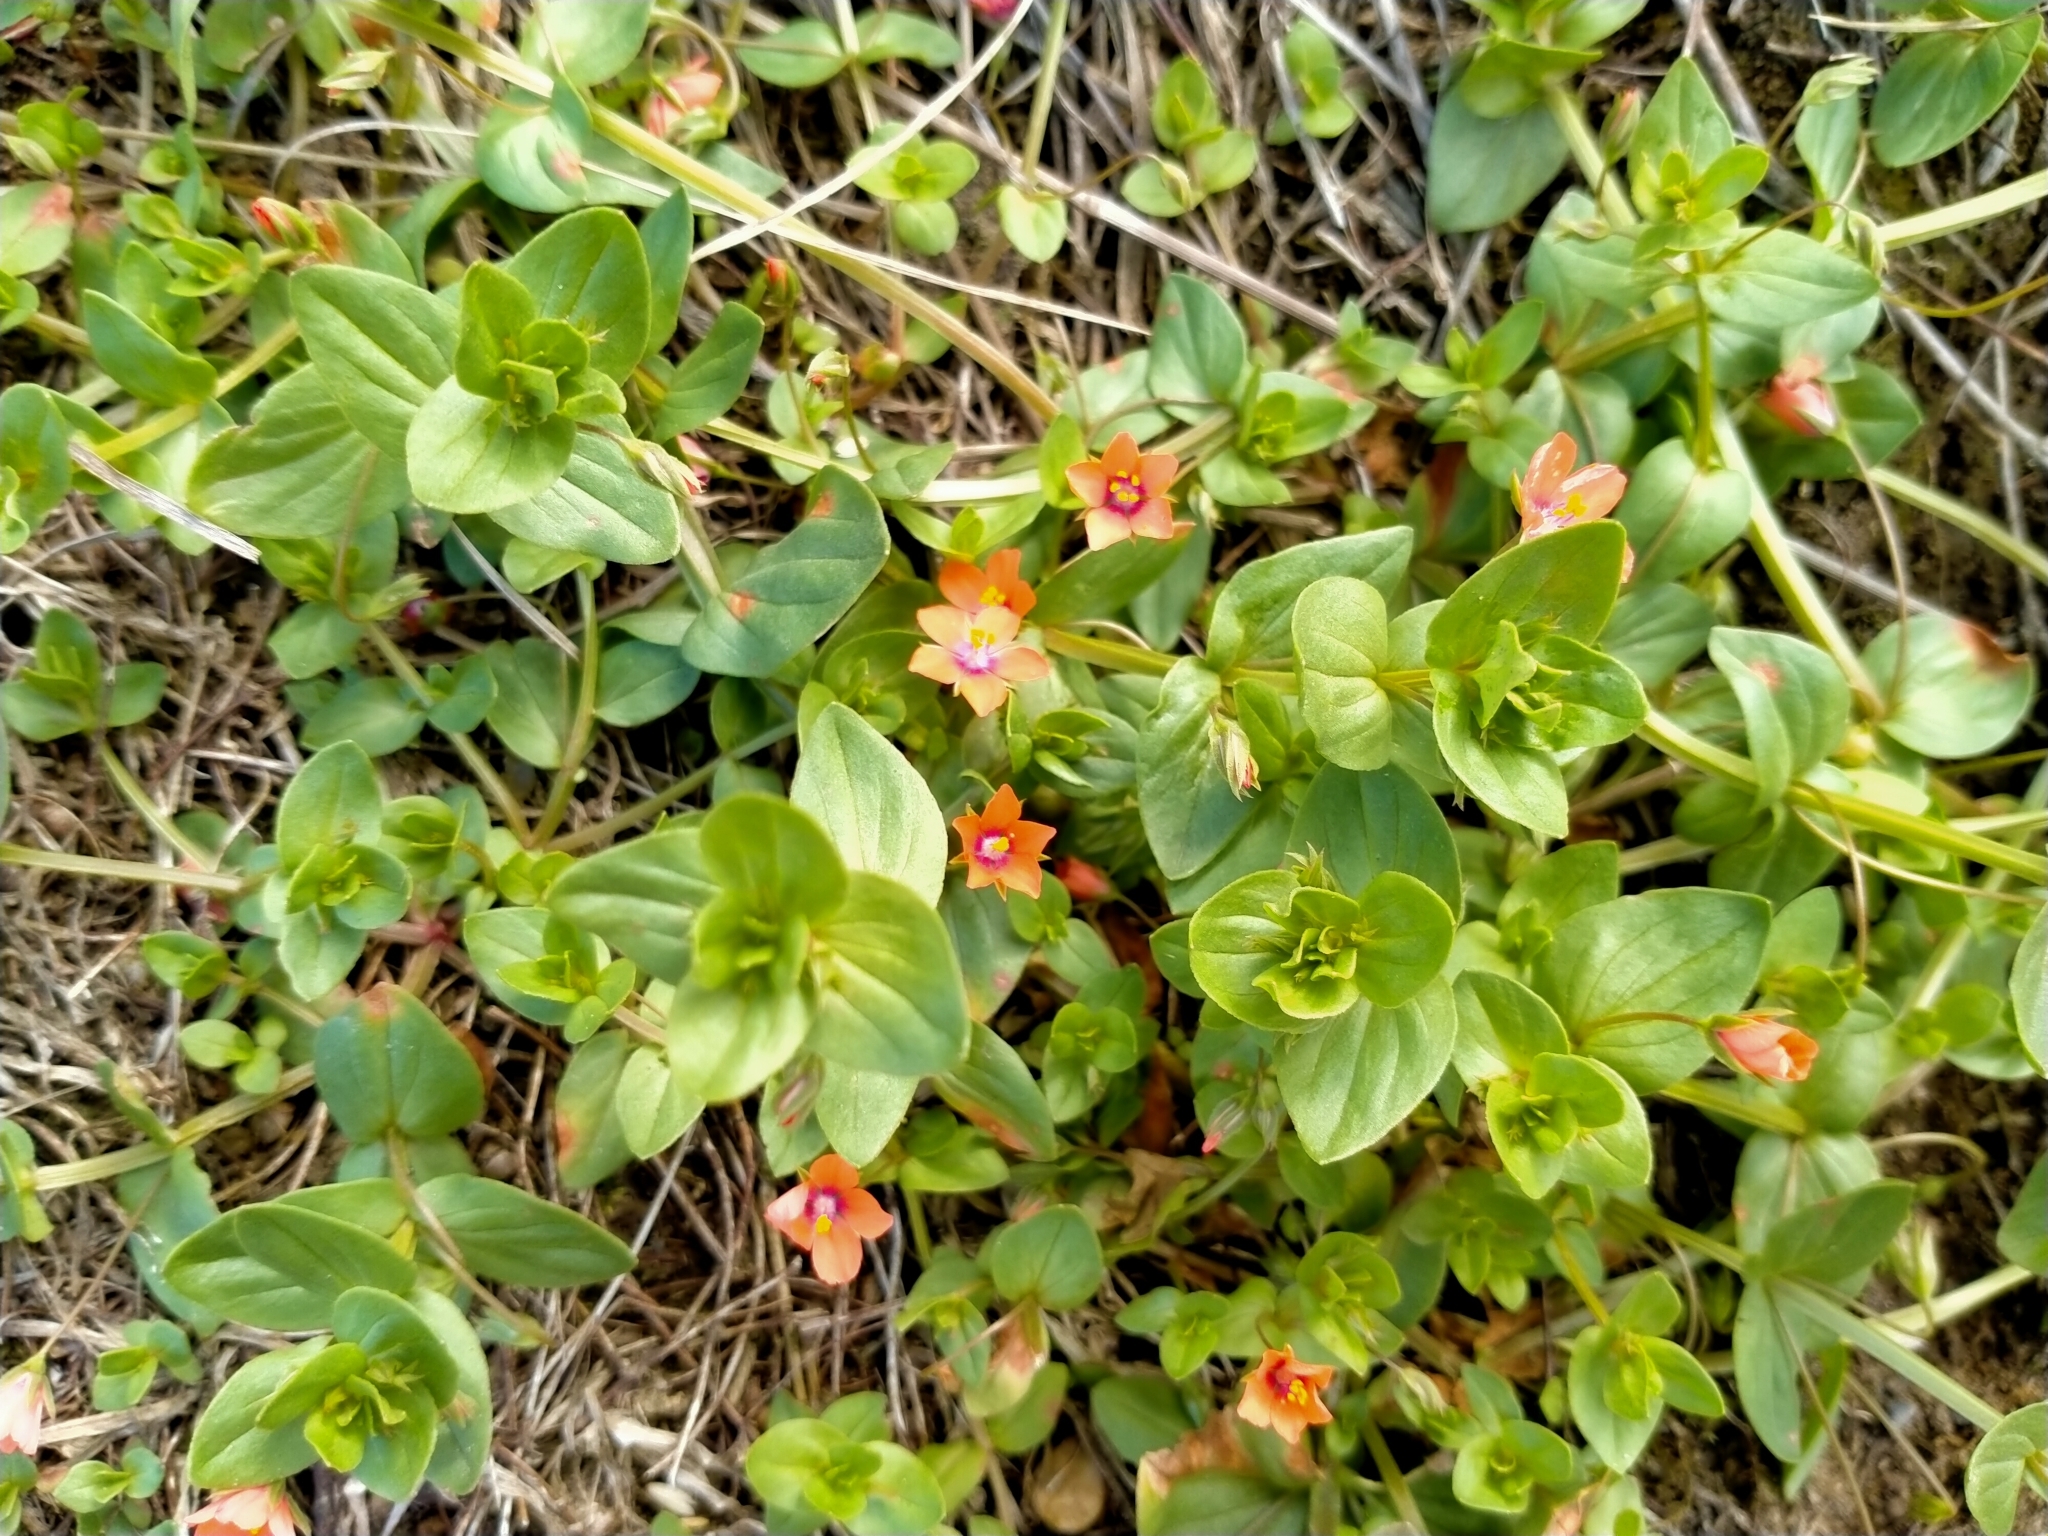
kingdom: Plantae
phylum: Tracheophyta
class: Magnoliopsida
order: Ericales
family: Primulaceae
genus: Lysimachia
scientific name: Lysimachia arvensis
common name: Scarlet pimpernel
